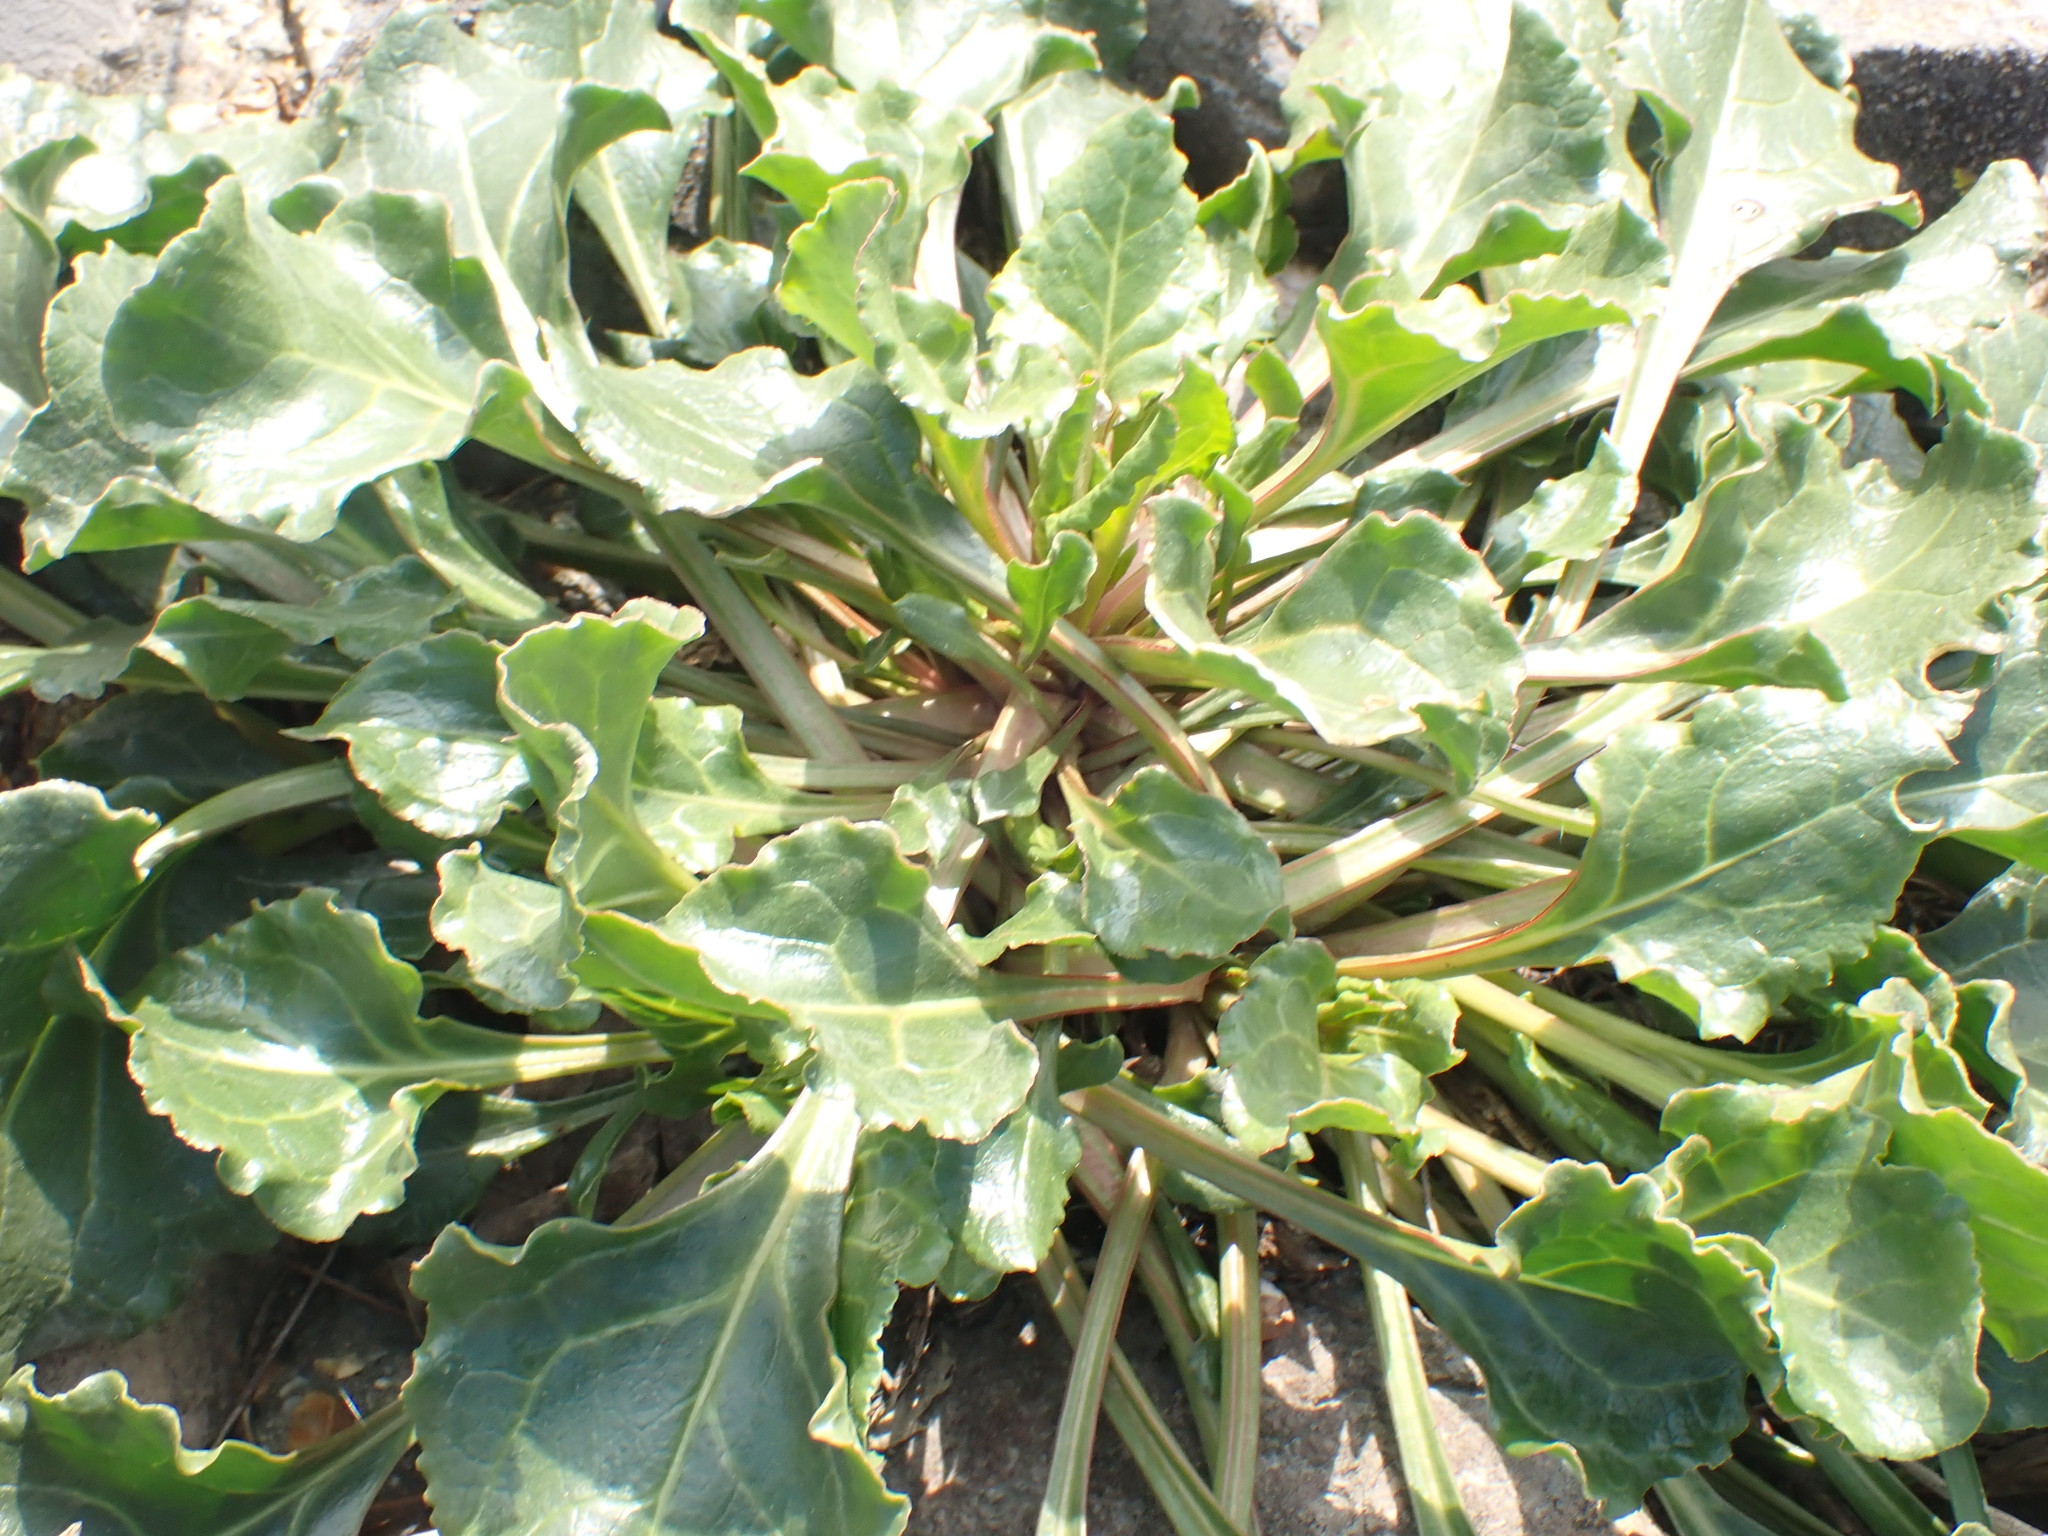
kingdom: Plantae
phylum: Tracheophyta
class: Magnoliopsida
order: Caryophyllales
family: Amaranthaceae
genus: Beta
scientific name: Beta vulgaris
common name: Beet
